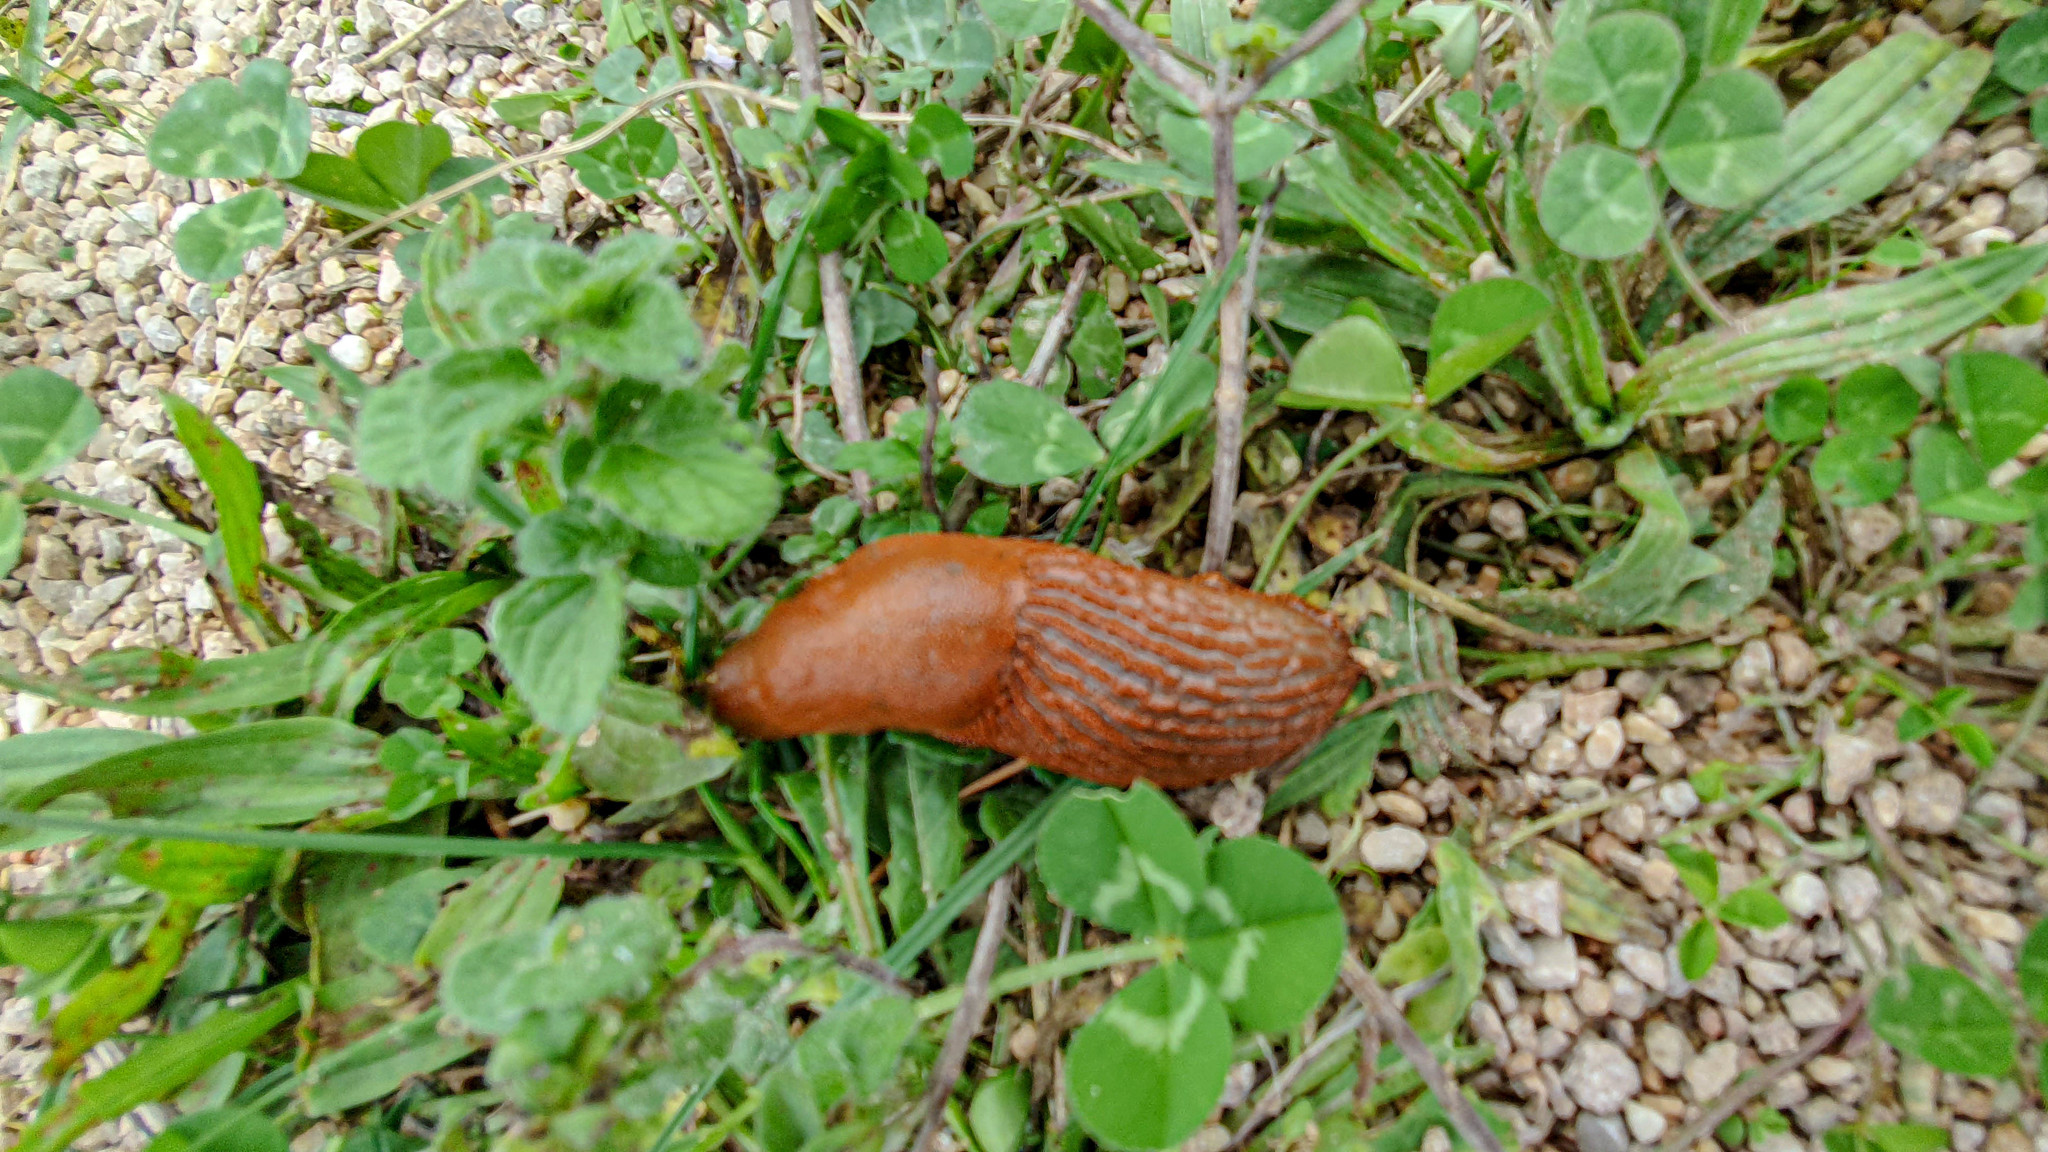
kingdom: Animalia
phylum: Mollusca
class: Gastropoda
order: Stylommatophora
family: Arionidae
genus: Arion
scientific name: Arion rufus
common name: Chocolate arion
